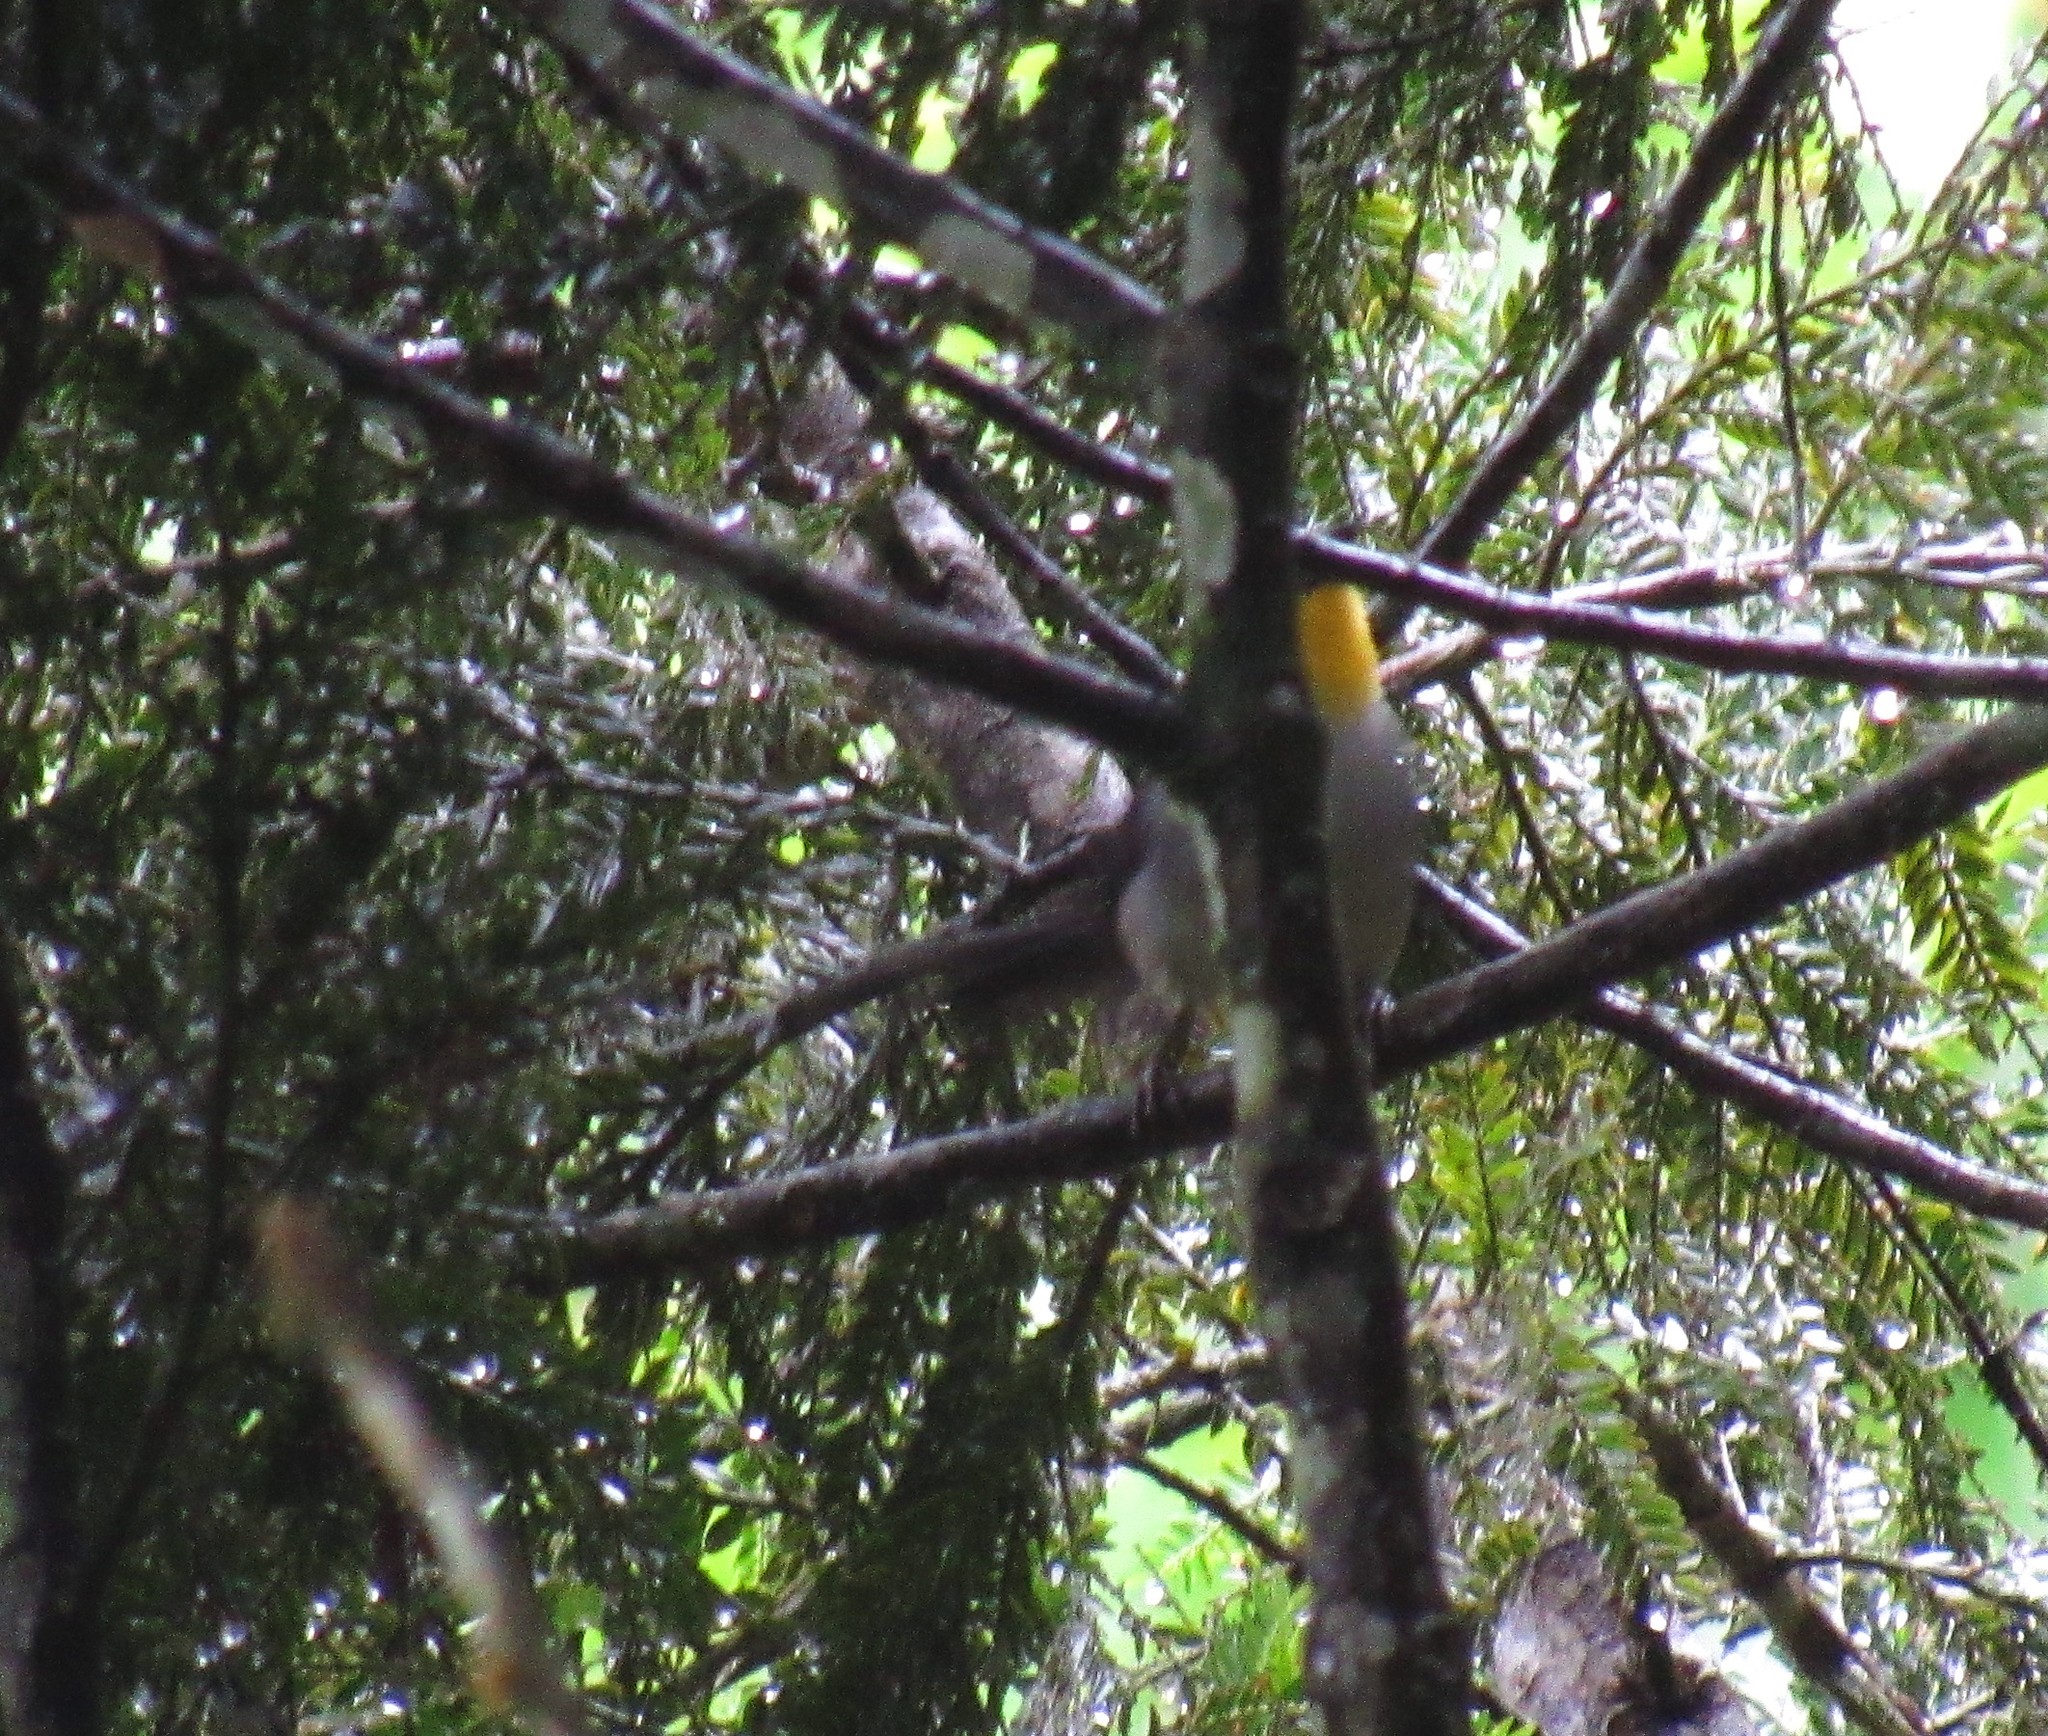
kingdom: Animalia
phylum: Chordata
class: Aves
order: Passeriformes
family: Passerellidae
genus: Atlapetes
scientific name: Atlapetes albinucha
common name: White-naped brush-finch
